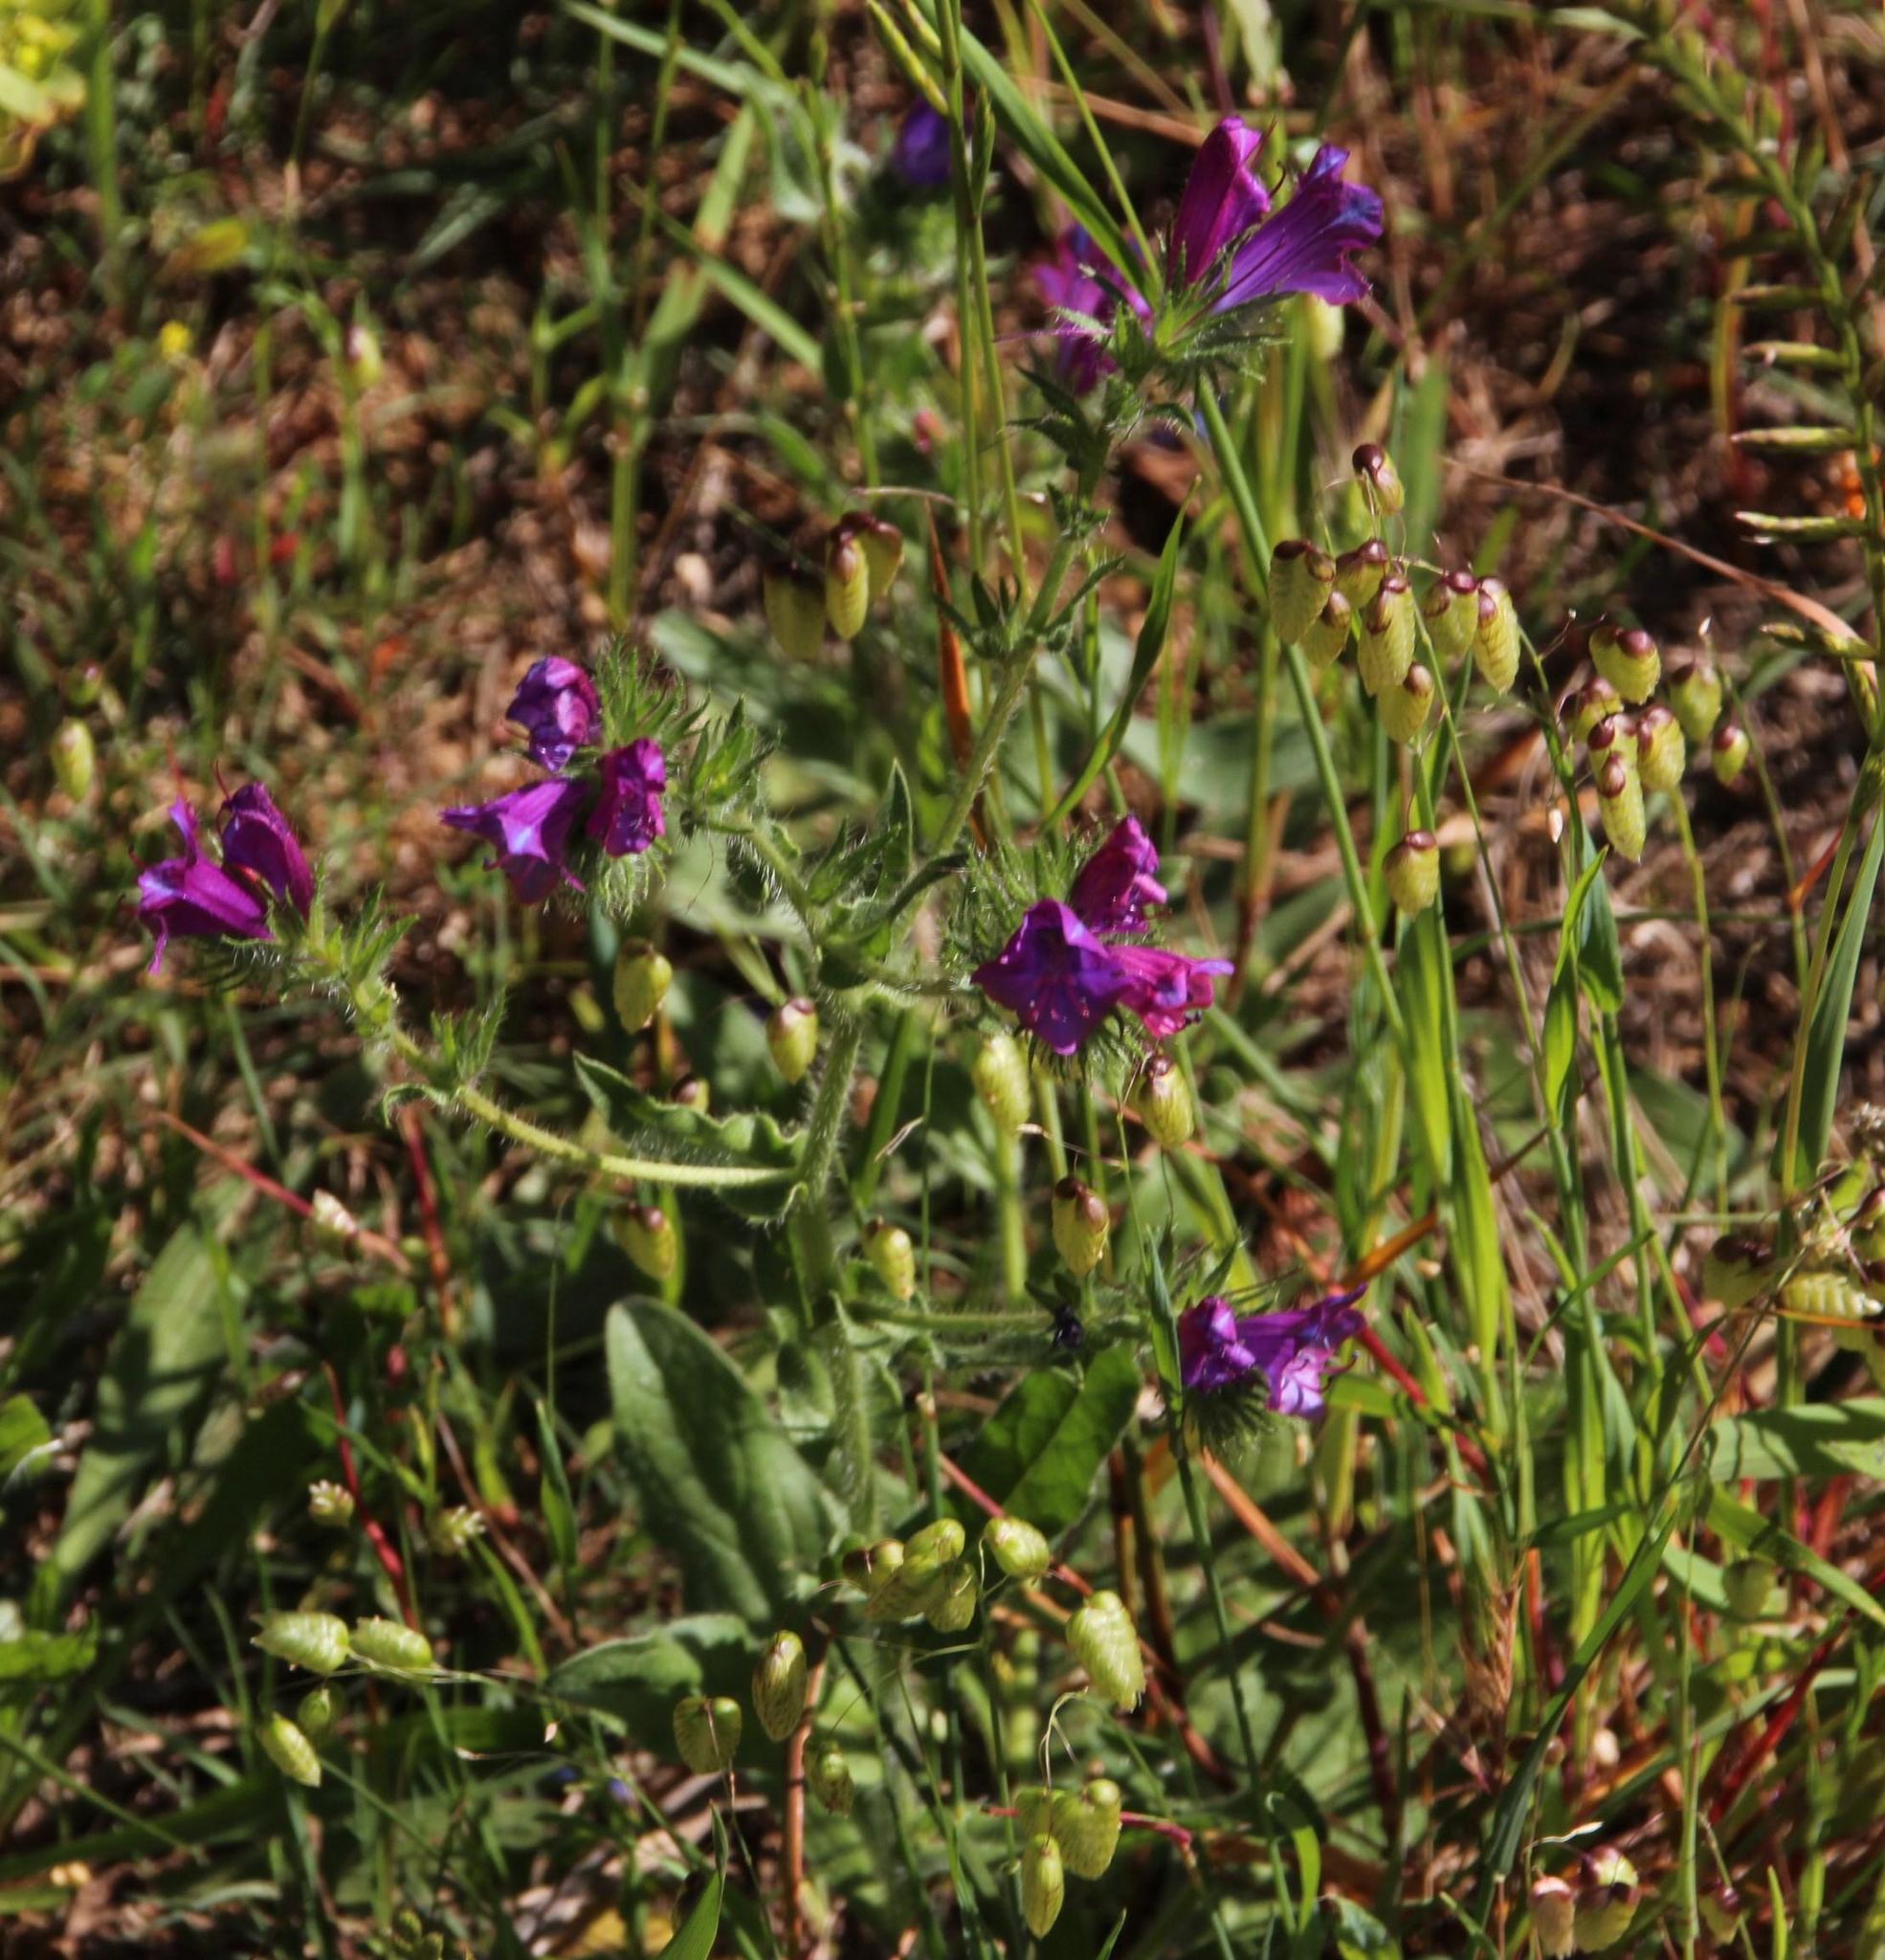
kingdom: Plantae
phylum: Tracheophyta
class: Liliopsida
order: Poales
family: Poaceae
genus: Briza
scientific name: Briza maxima
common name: Big quakinggrass
